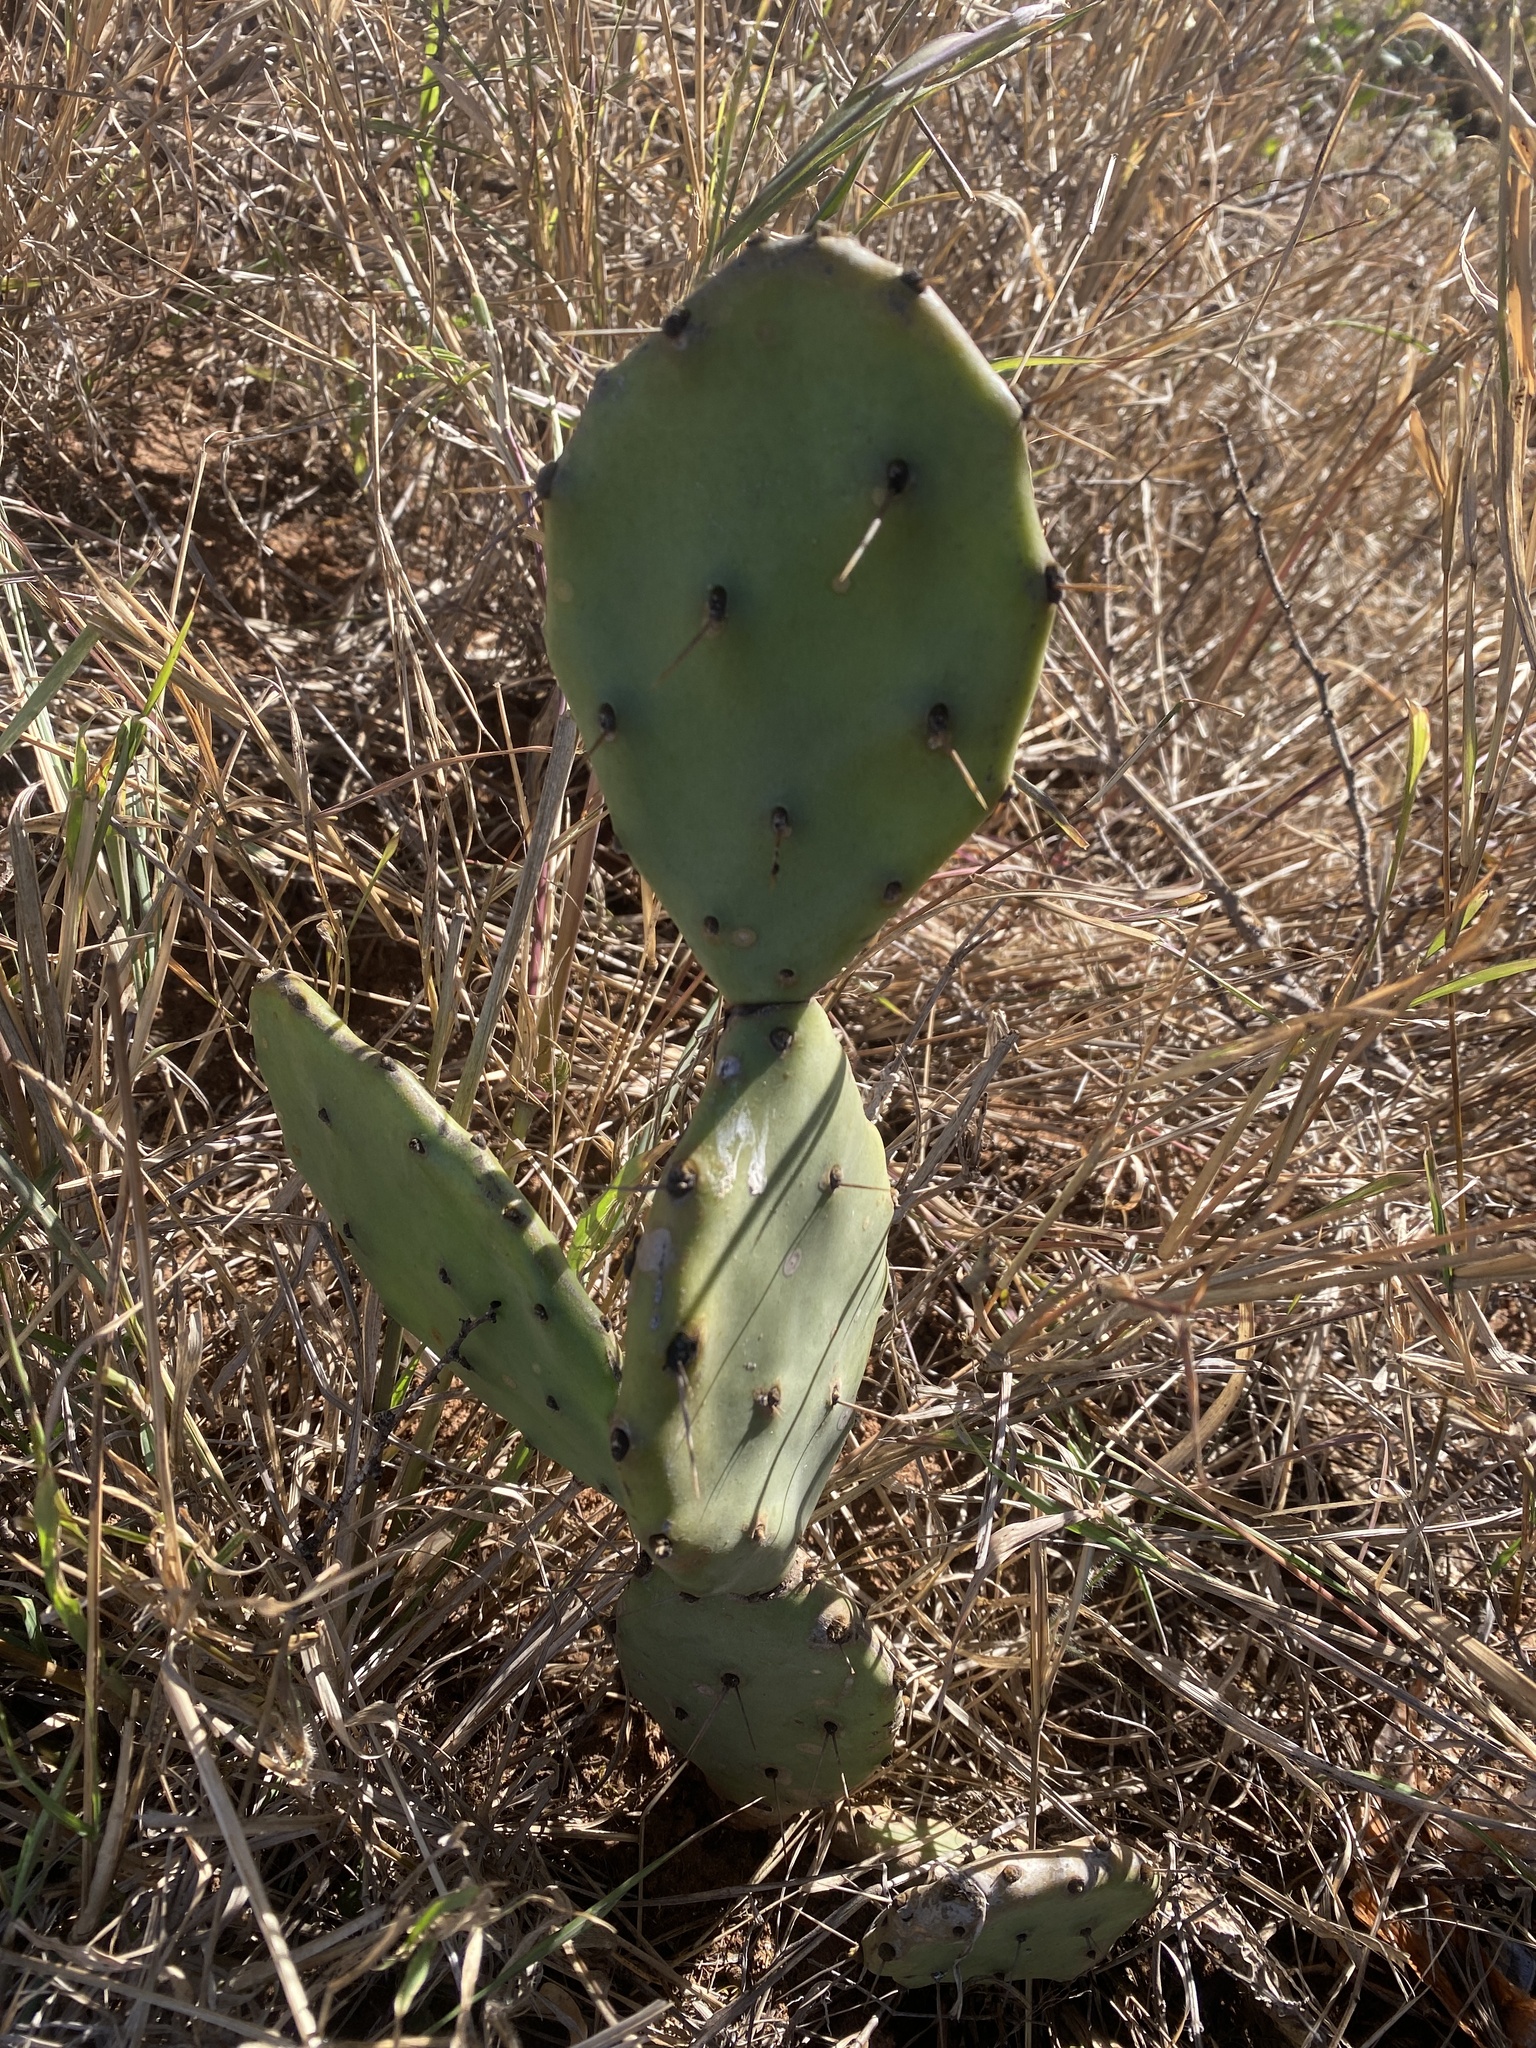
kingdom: Plantae
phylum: Tracheophyta
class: Magnoliopsida
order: Caryophyllales
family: Cactaceae
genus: Opuntia
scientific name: Opuntia stricta
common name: Erect pricklypear
